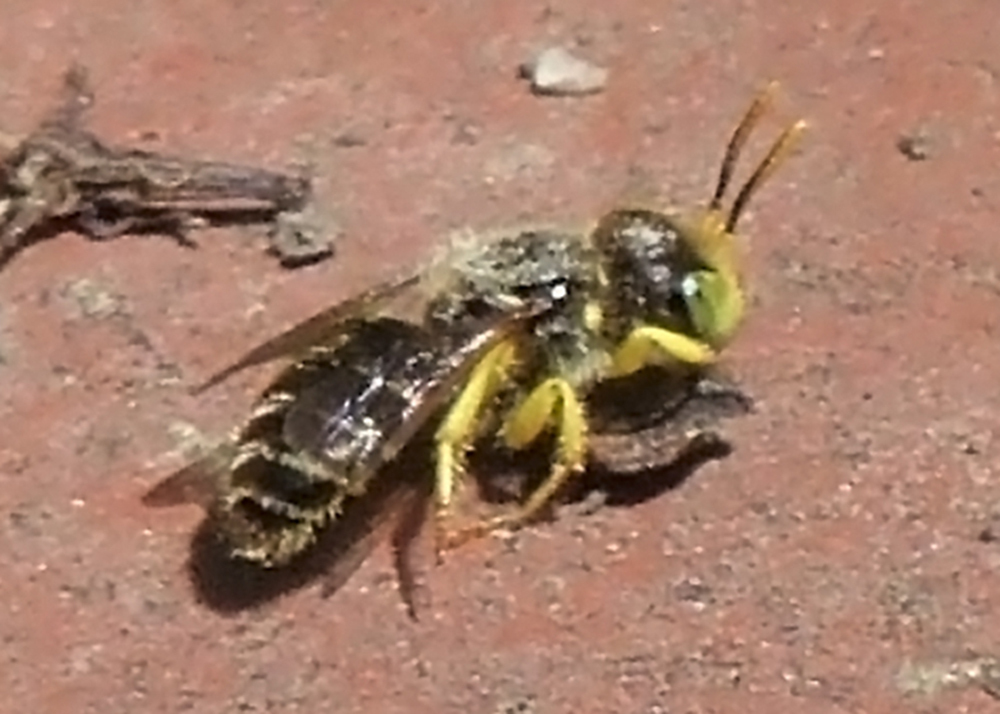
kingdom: Animalia
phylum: Arthropoda
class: Insecta
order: Hymenoptera
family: Andrenidae
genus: Calliopsis
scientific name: Calliopsis andreniformis
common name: Eastern calliopsis bee
